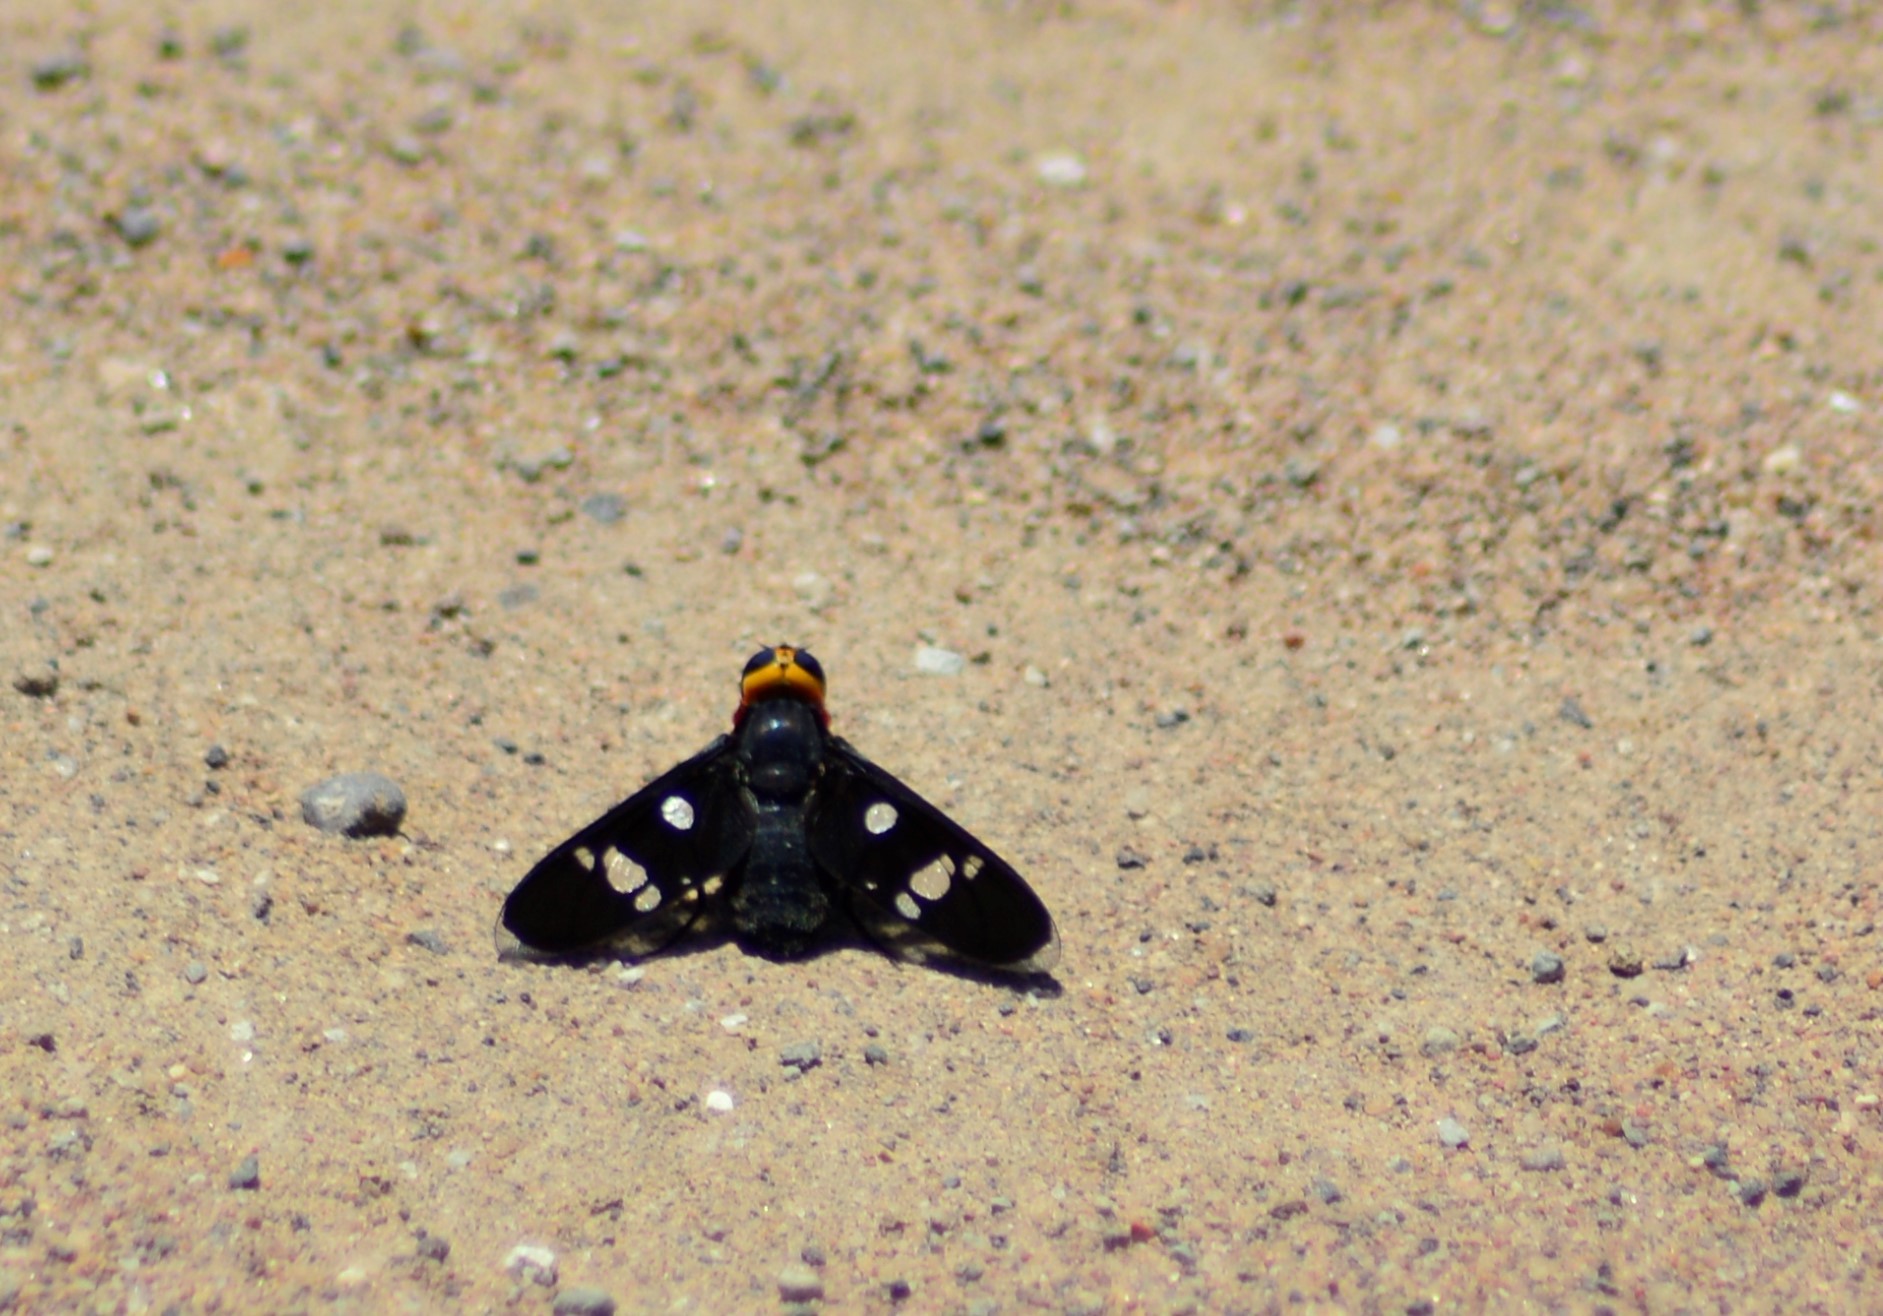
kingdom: Animalia
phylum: Arthropoda
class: Insecta
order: Diptera
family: Bombyliidae
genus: Hyperalonia
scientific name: Hyperalonia morio
